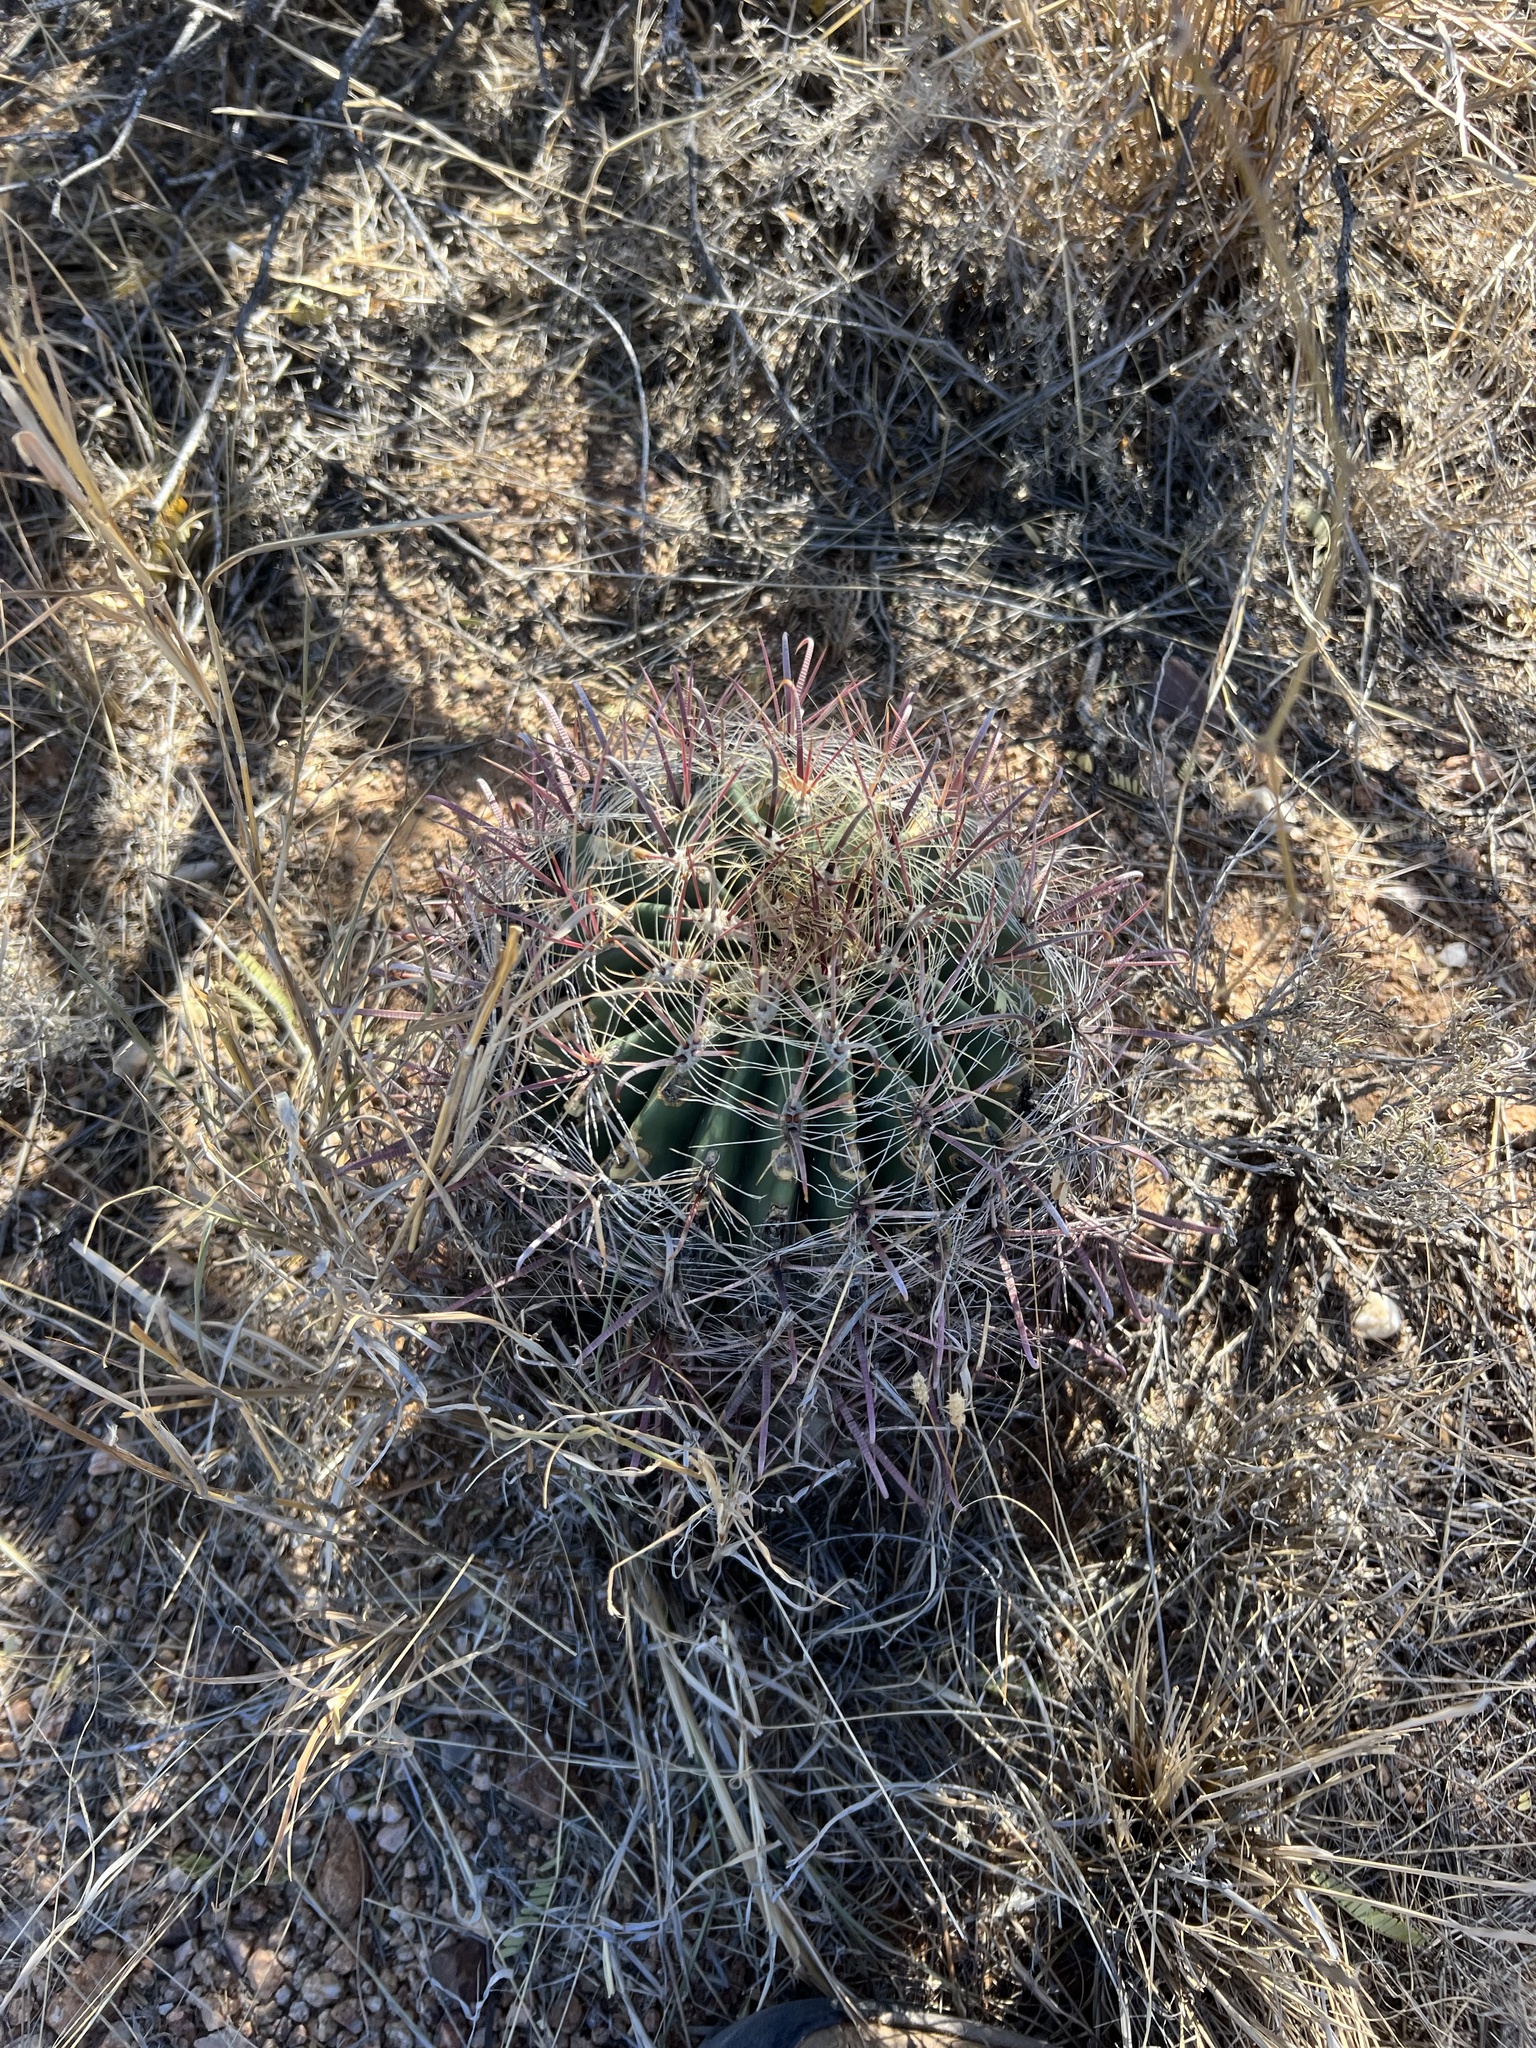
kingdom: Plantae
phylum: Tracheophyta
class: Magnoliopsida
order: Caryophyllales
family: Cactaceae
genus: Ferocactus
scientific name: Ferocactus wislizeni
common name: Candy barrel cactus
